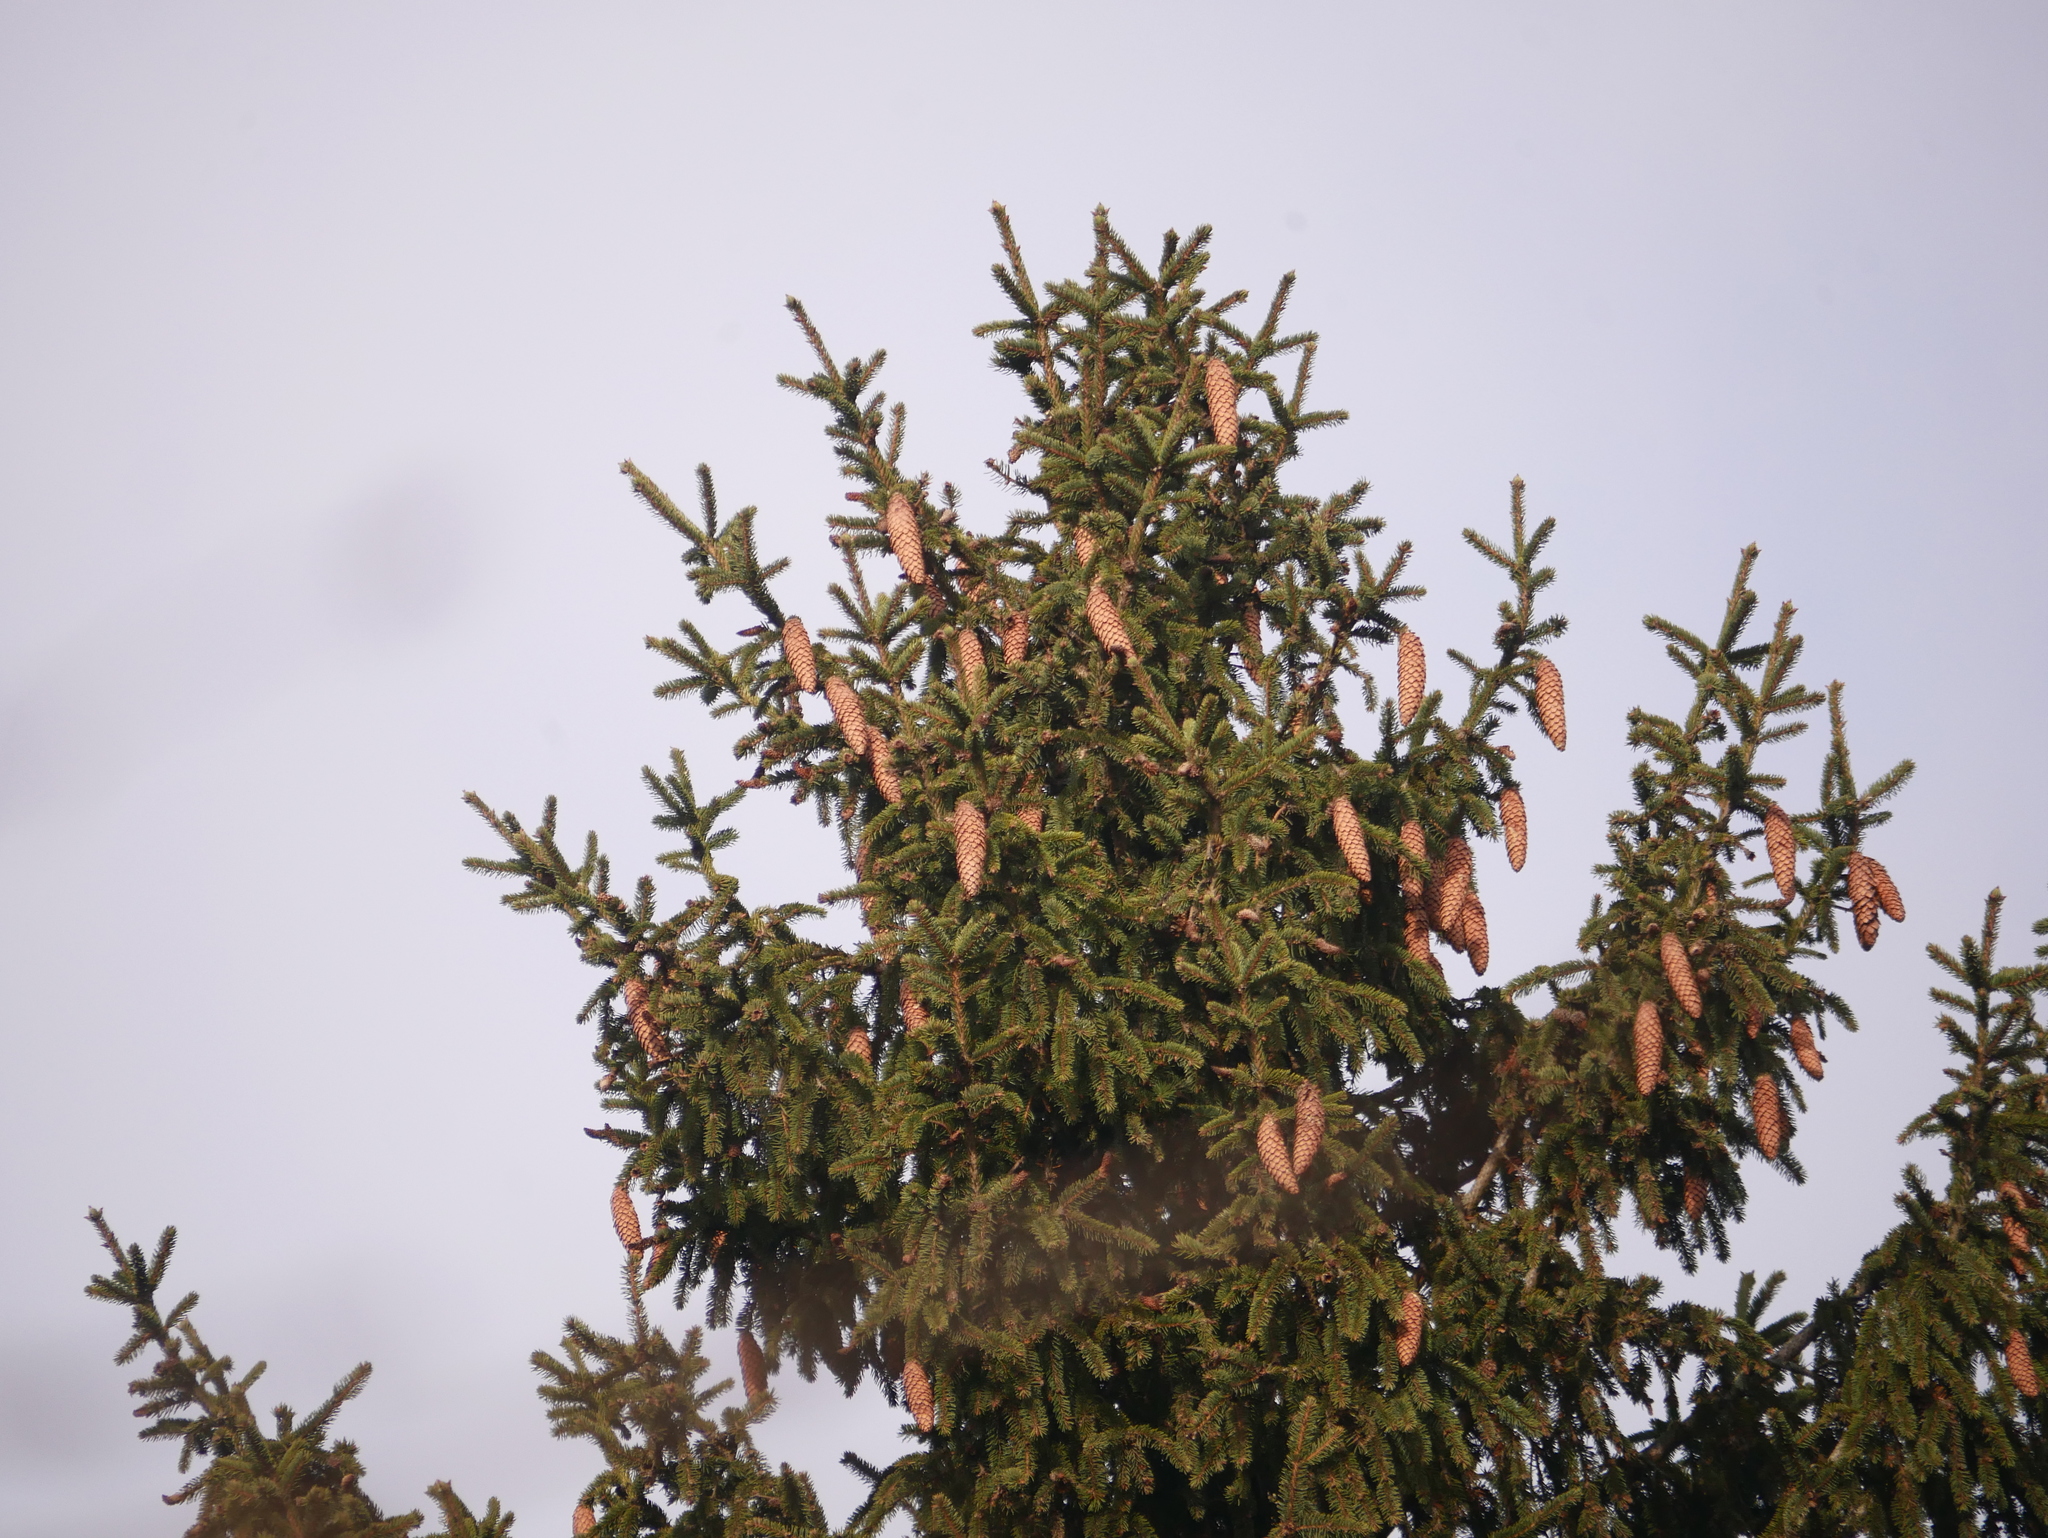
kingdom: Plantae
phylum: Tracheophyta
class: Pinopsida
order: Pinales
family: Pinaceae
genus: Picea
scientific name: Picea abies
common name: Norway spruce
